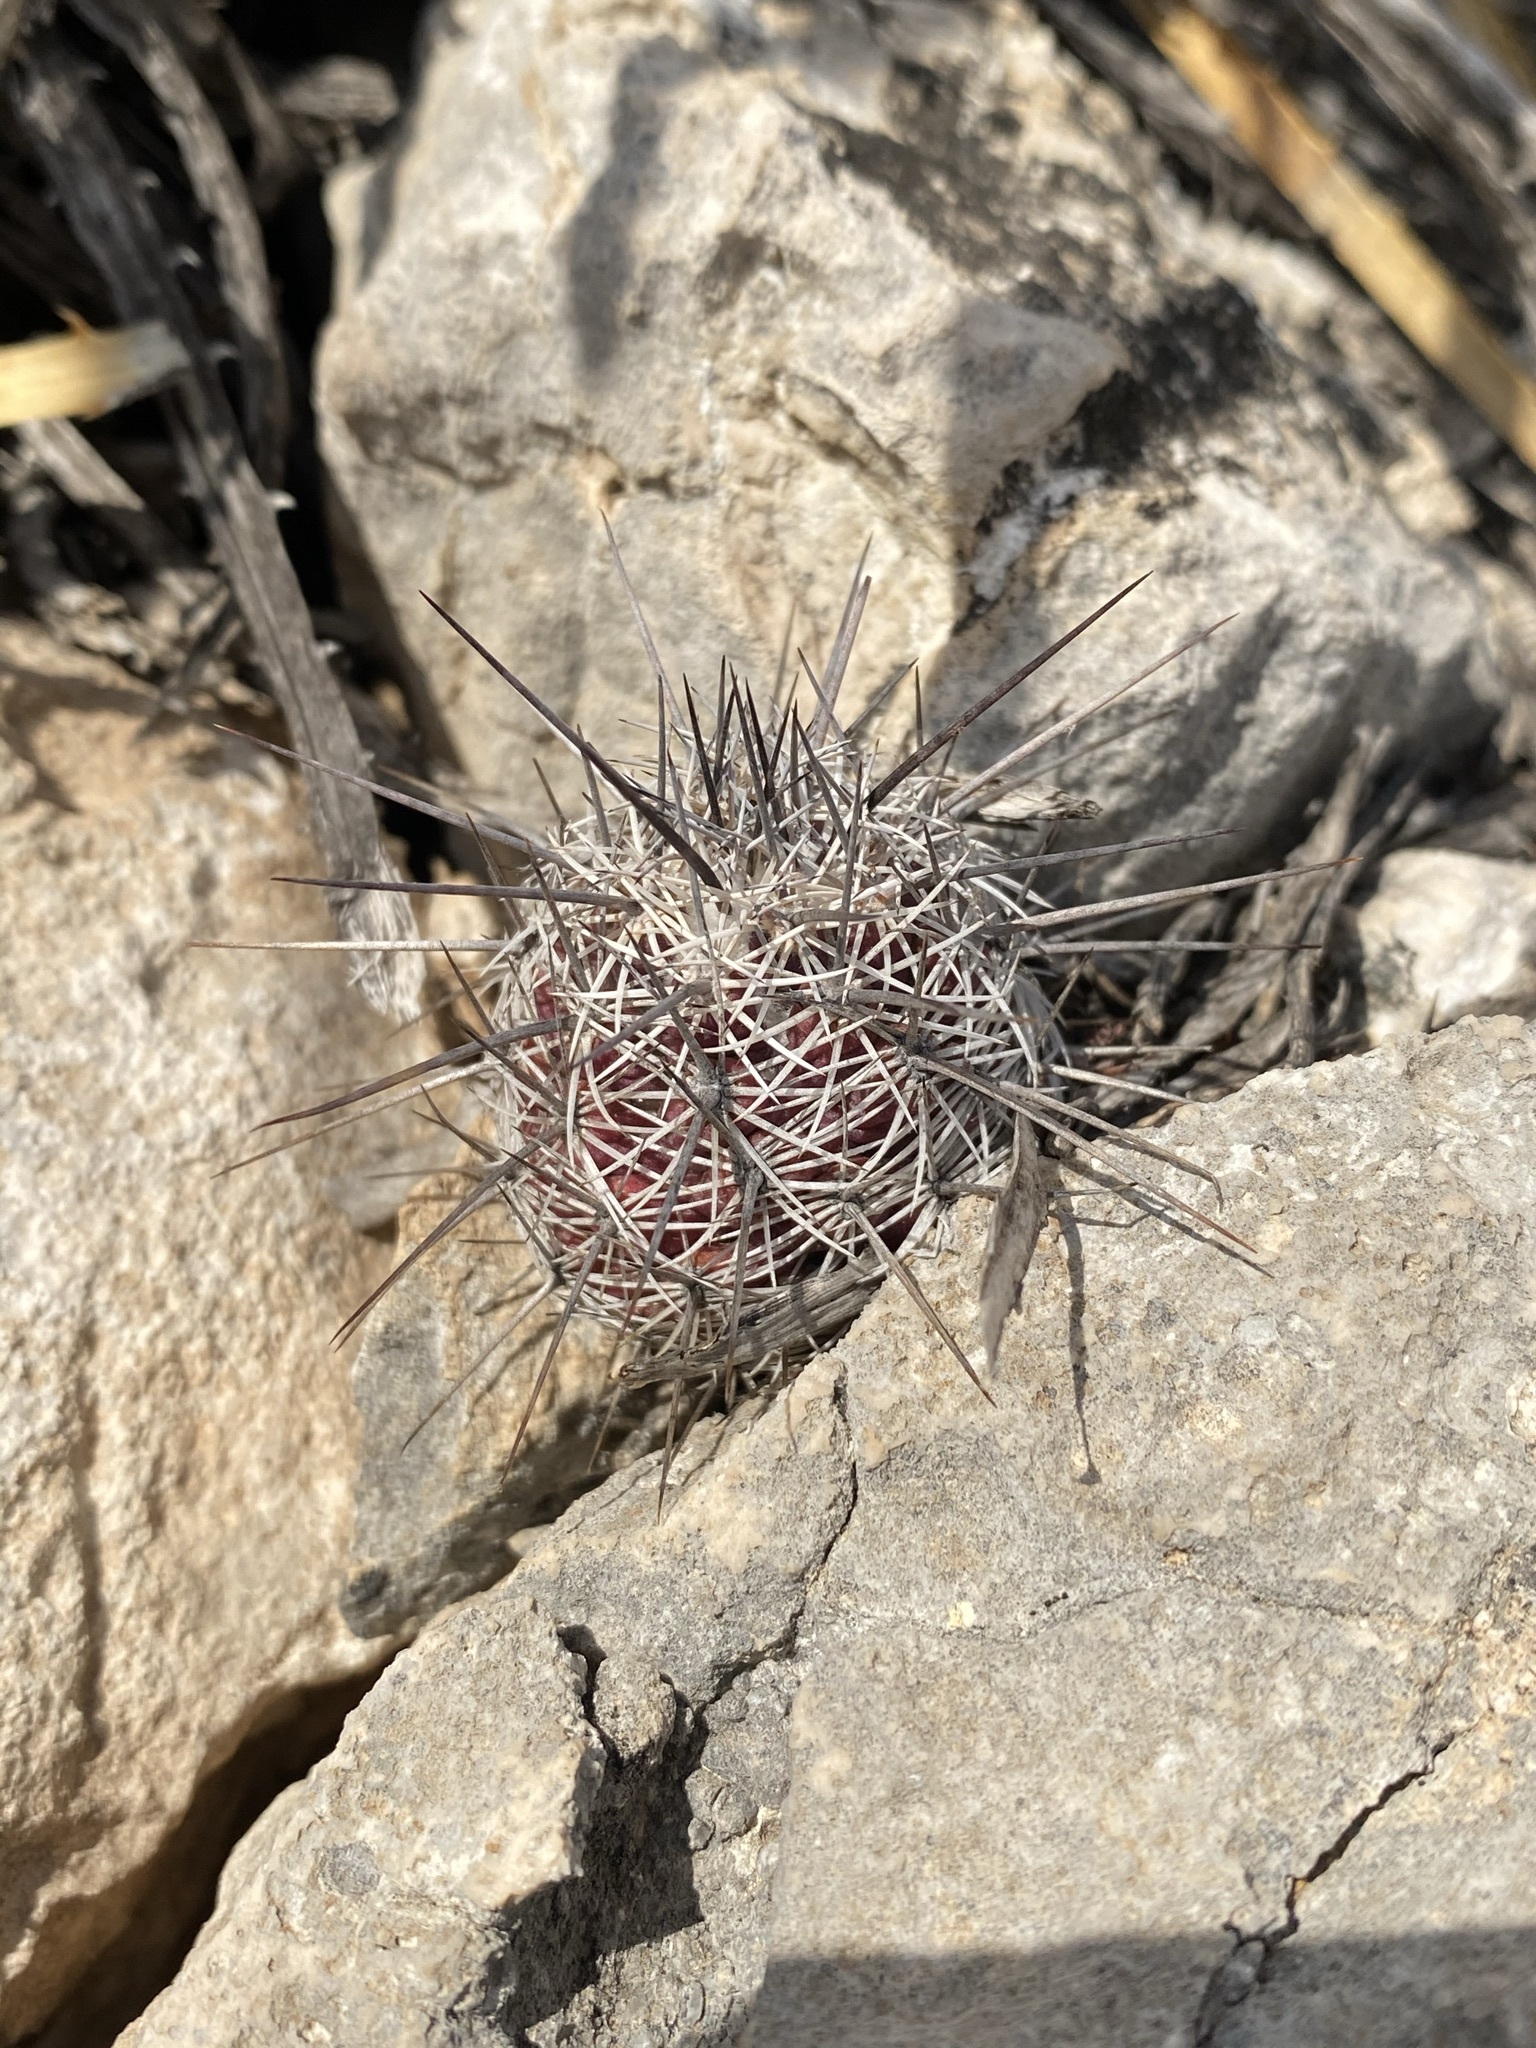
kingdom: Plantae
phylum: Tracheophyta
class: Magnoliopsida
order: Caryophyllales
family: Cactaceae
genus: Cochemiea
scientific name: Cochemiea conoidea
